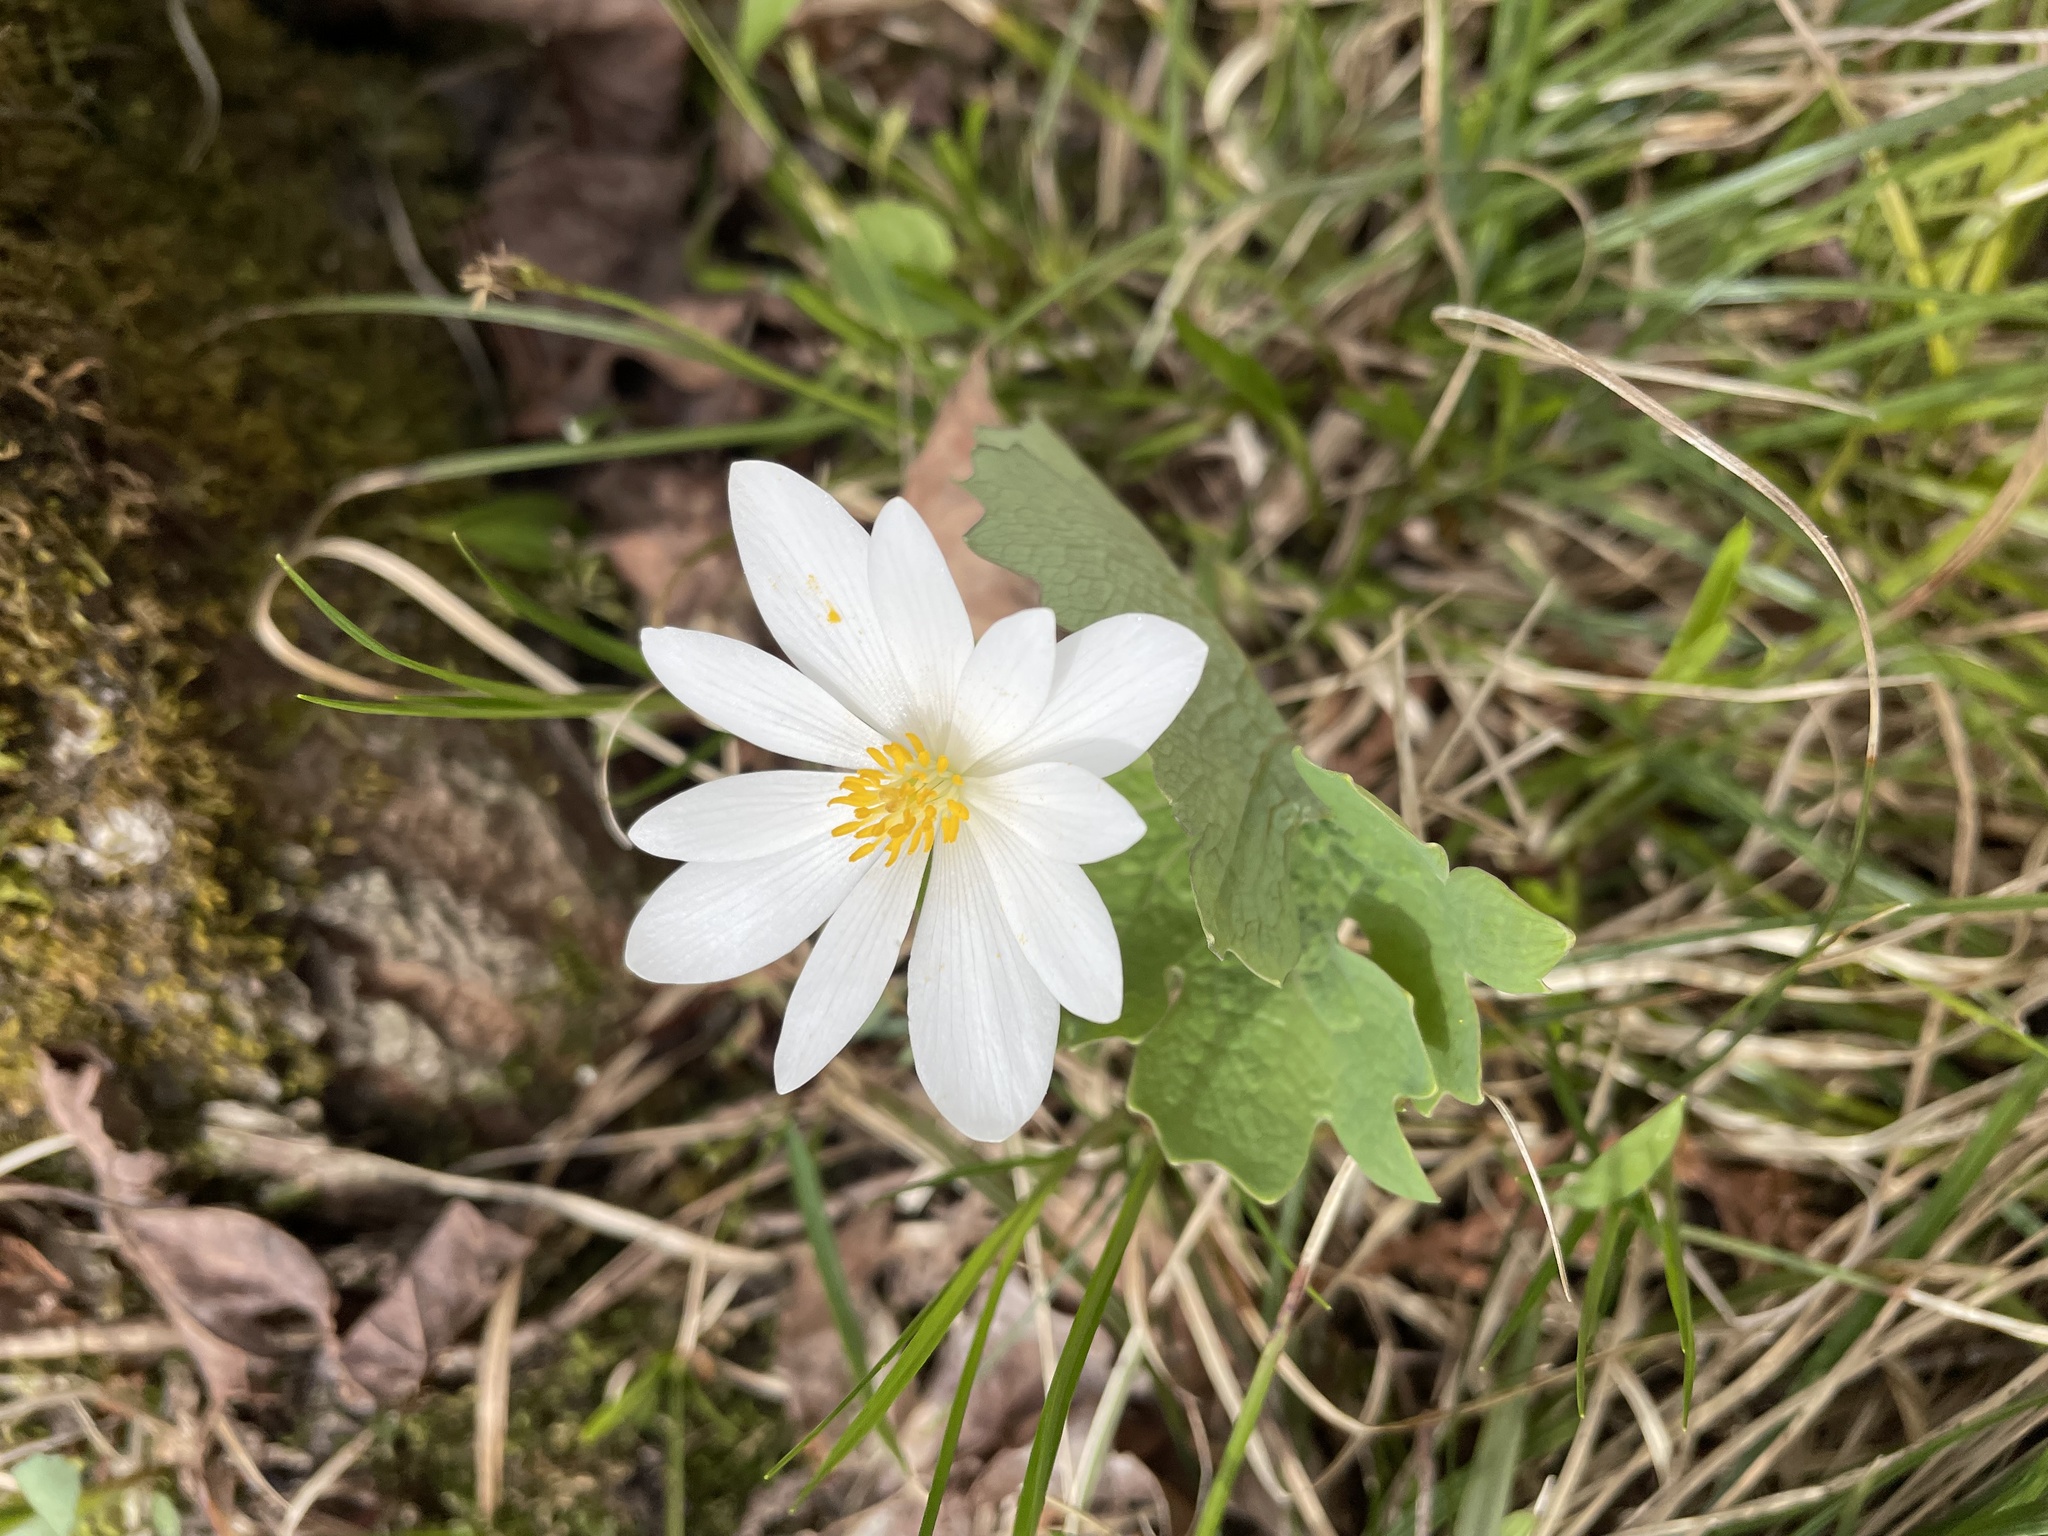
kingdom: Plantae
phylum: Tracheophyta
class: Magnoliopsida
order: Ranunculales
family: Papaveraceae
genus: Sanguinaria
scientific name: Sanguinaria canadensis
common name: Bloodroot
